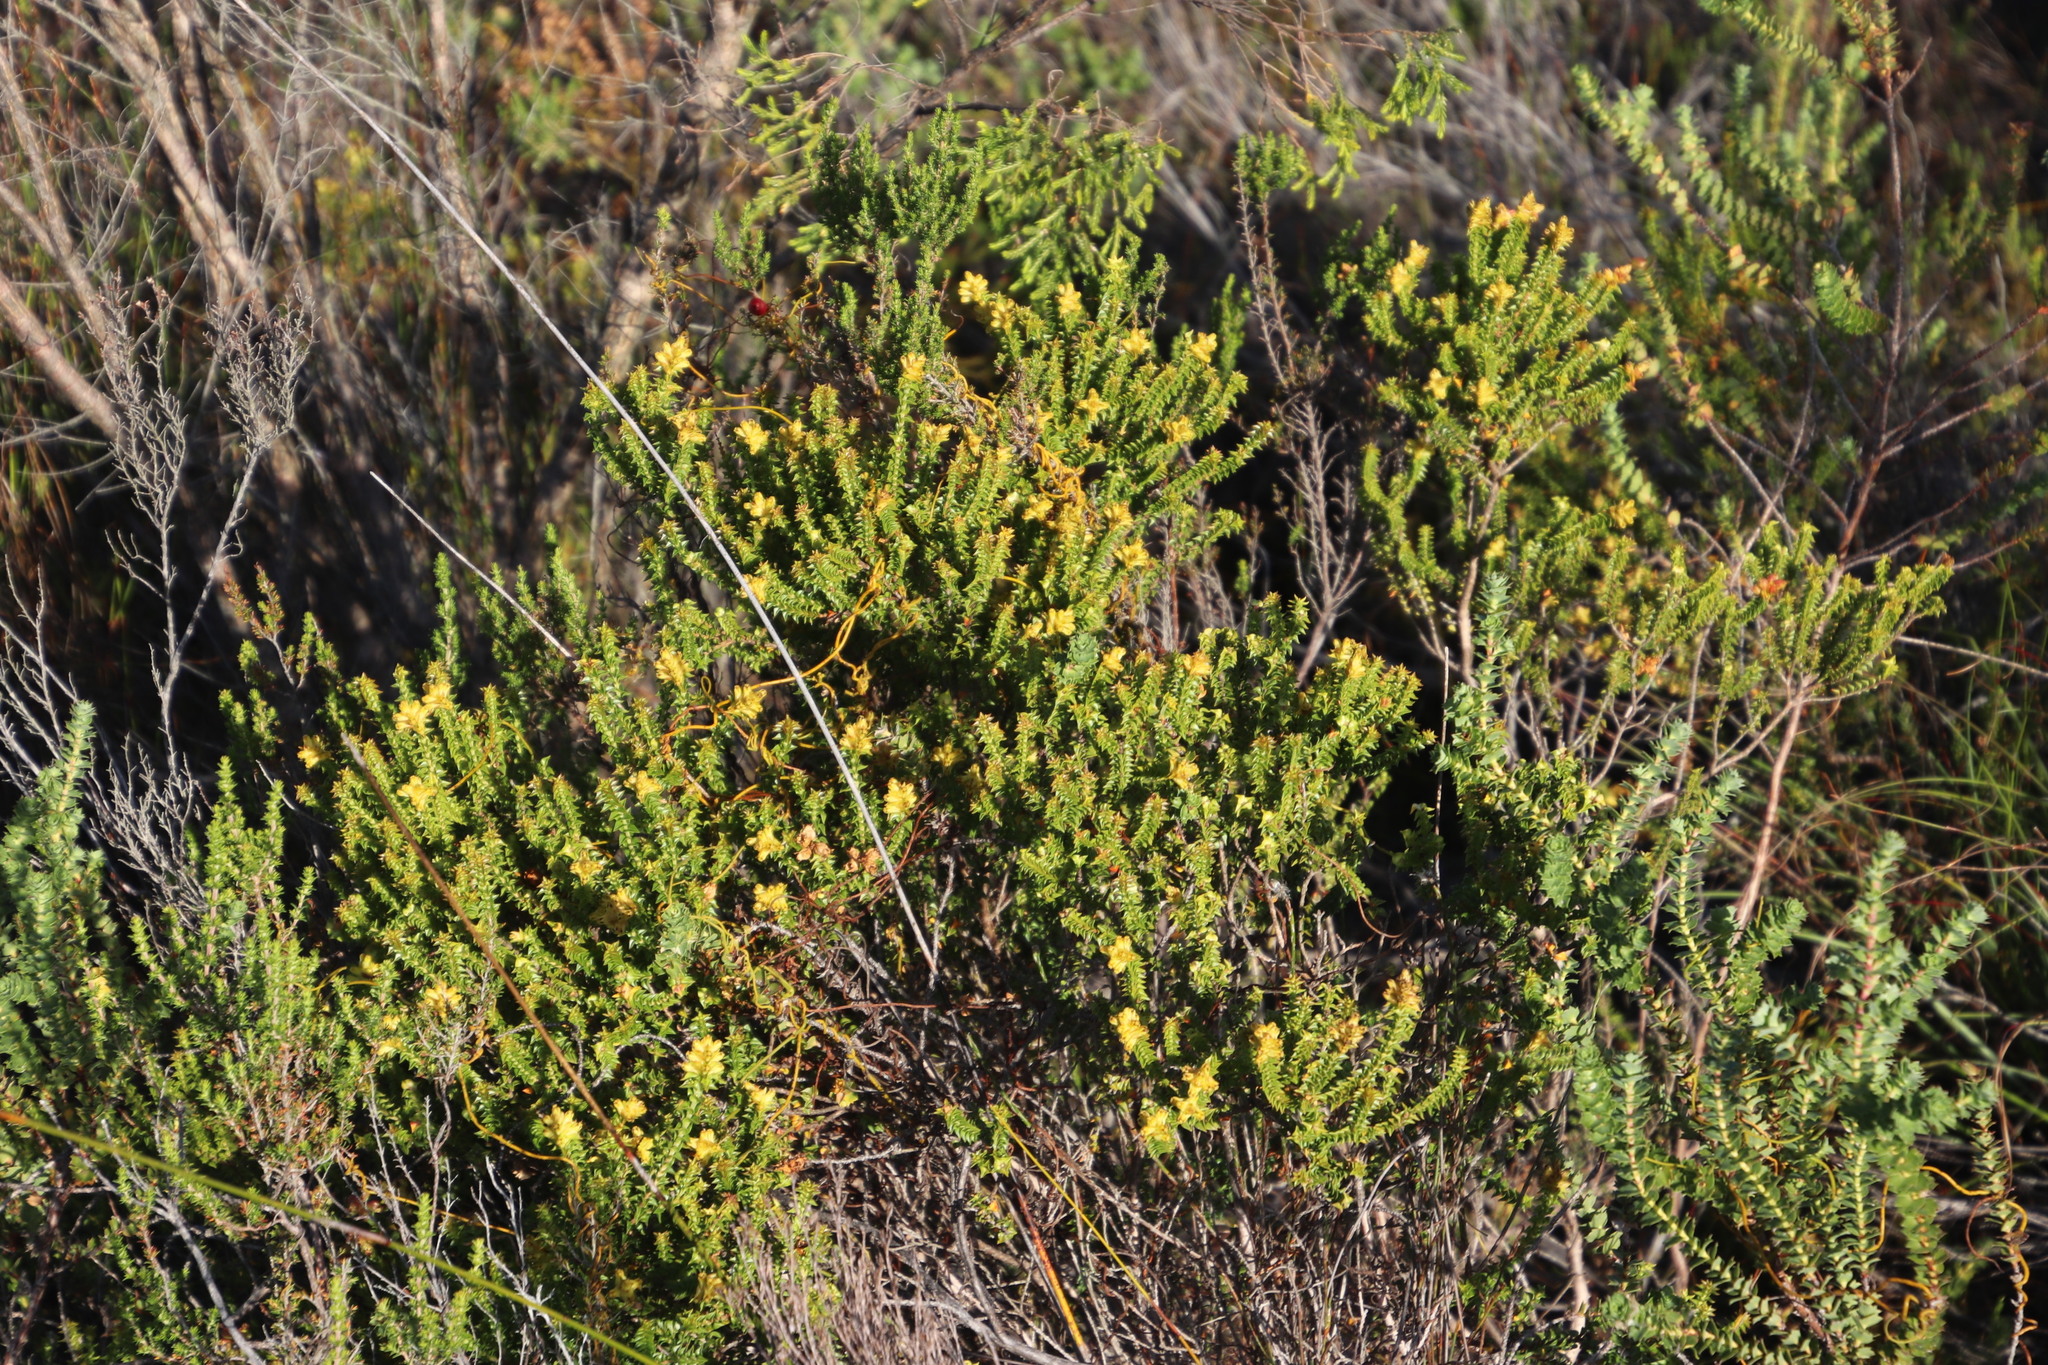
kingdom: Plantae
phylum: Tracheophyta
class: Magnoliopsida
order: Myrtales
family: Penaeaceae
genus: Penaea
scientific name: Penaea mucronata
